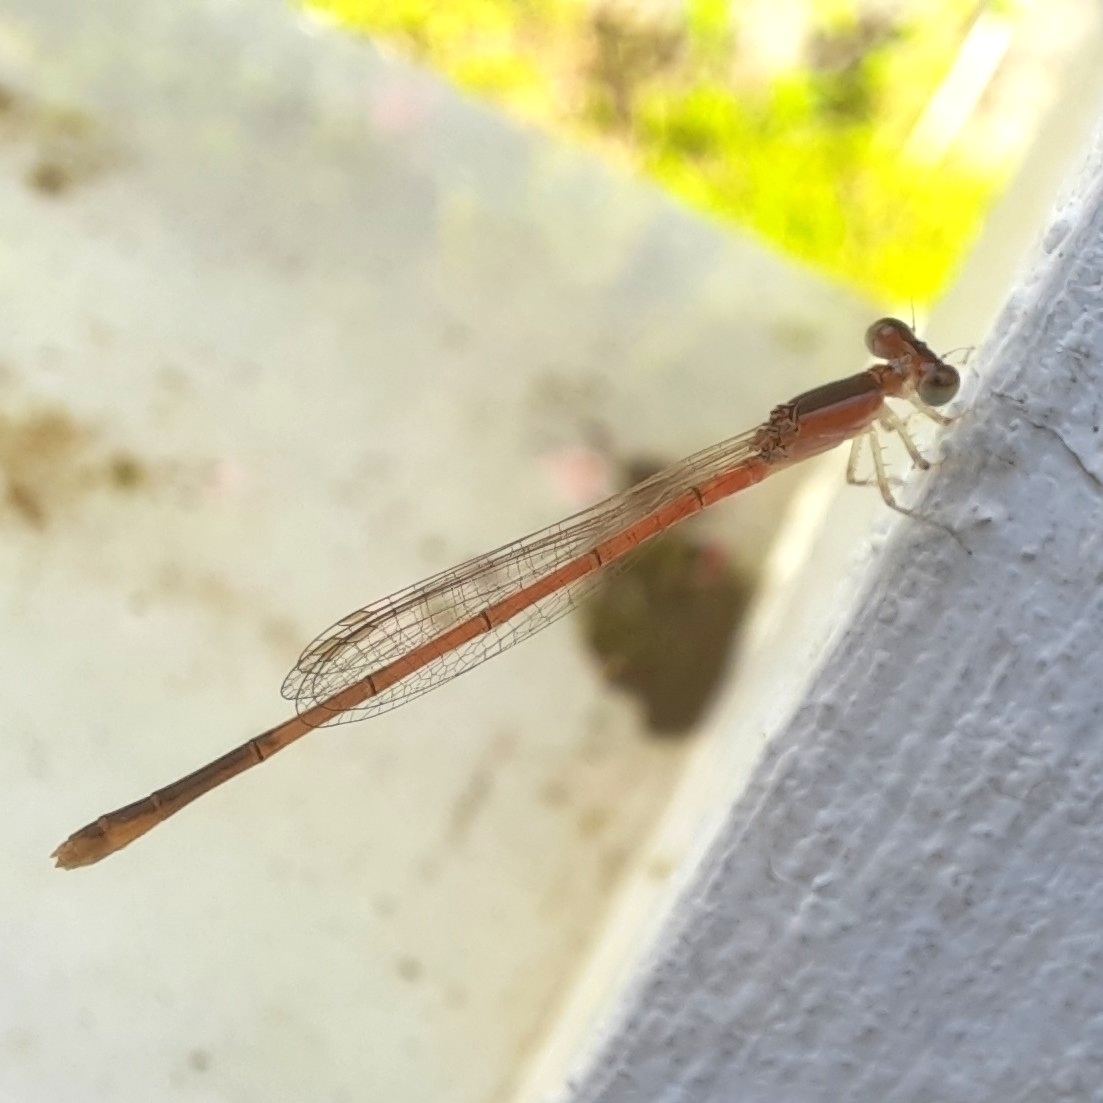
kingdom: Animalia
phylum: Arthropoda
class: Insecta
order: Odonata
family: Coenagrionidae
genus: Agriocnemis
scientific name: Agriocnemis pygmaea
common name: Pygmy wisp
